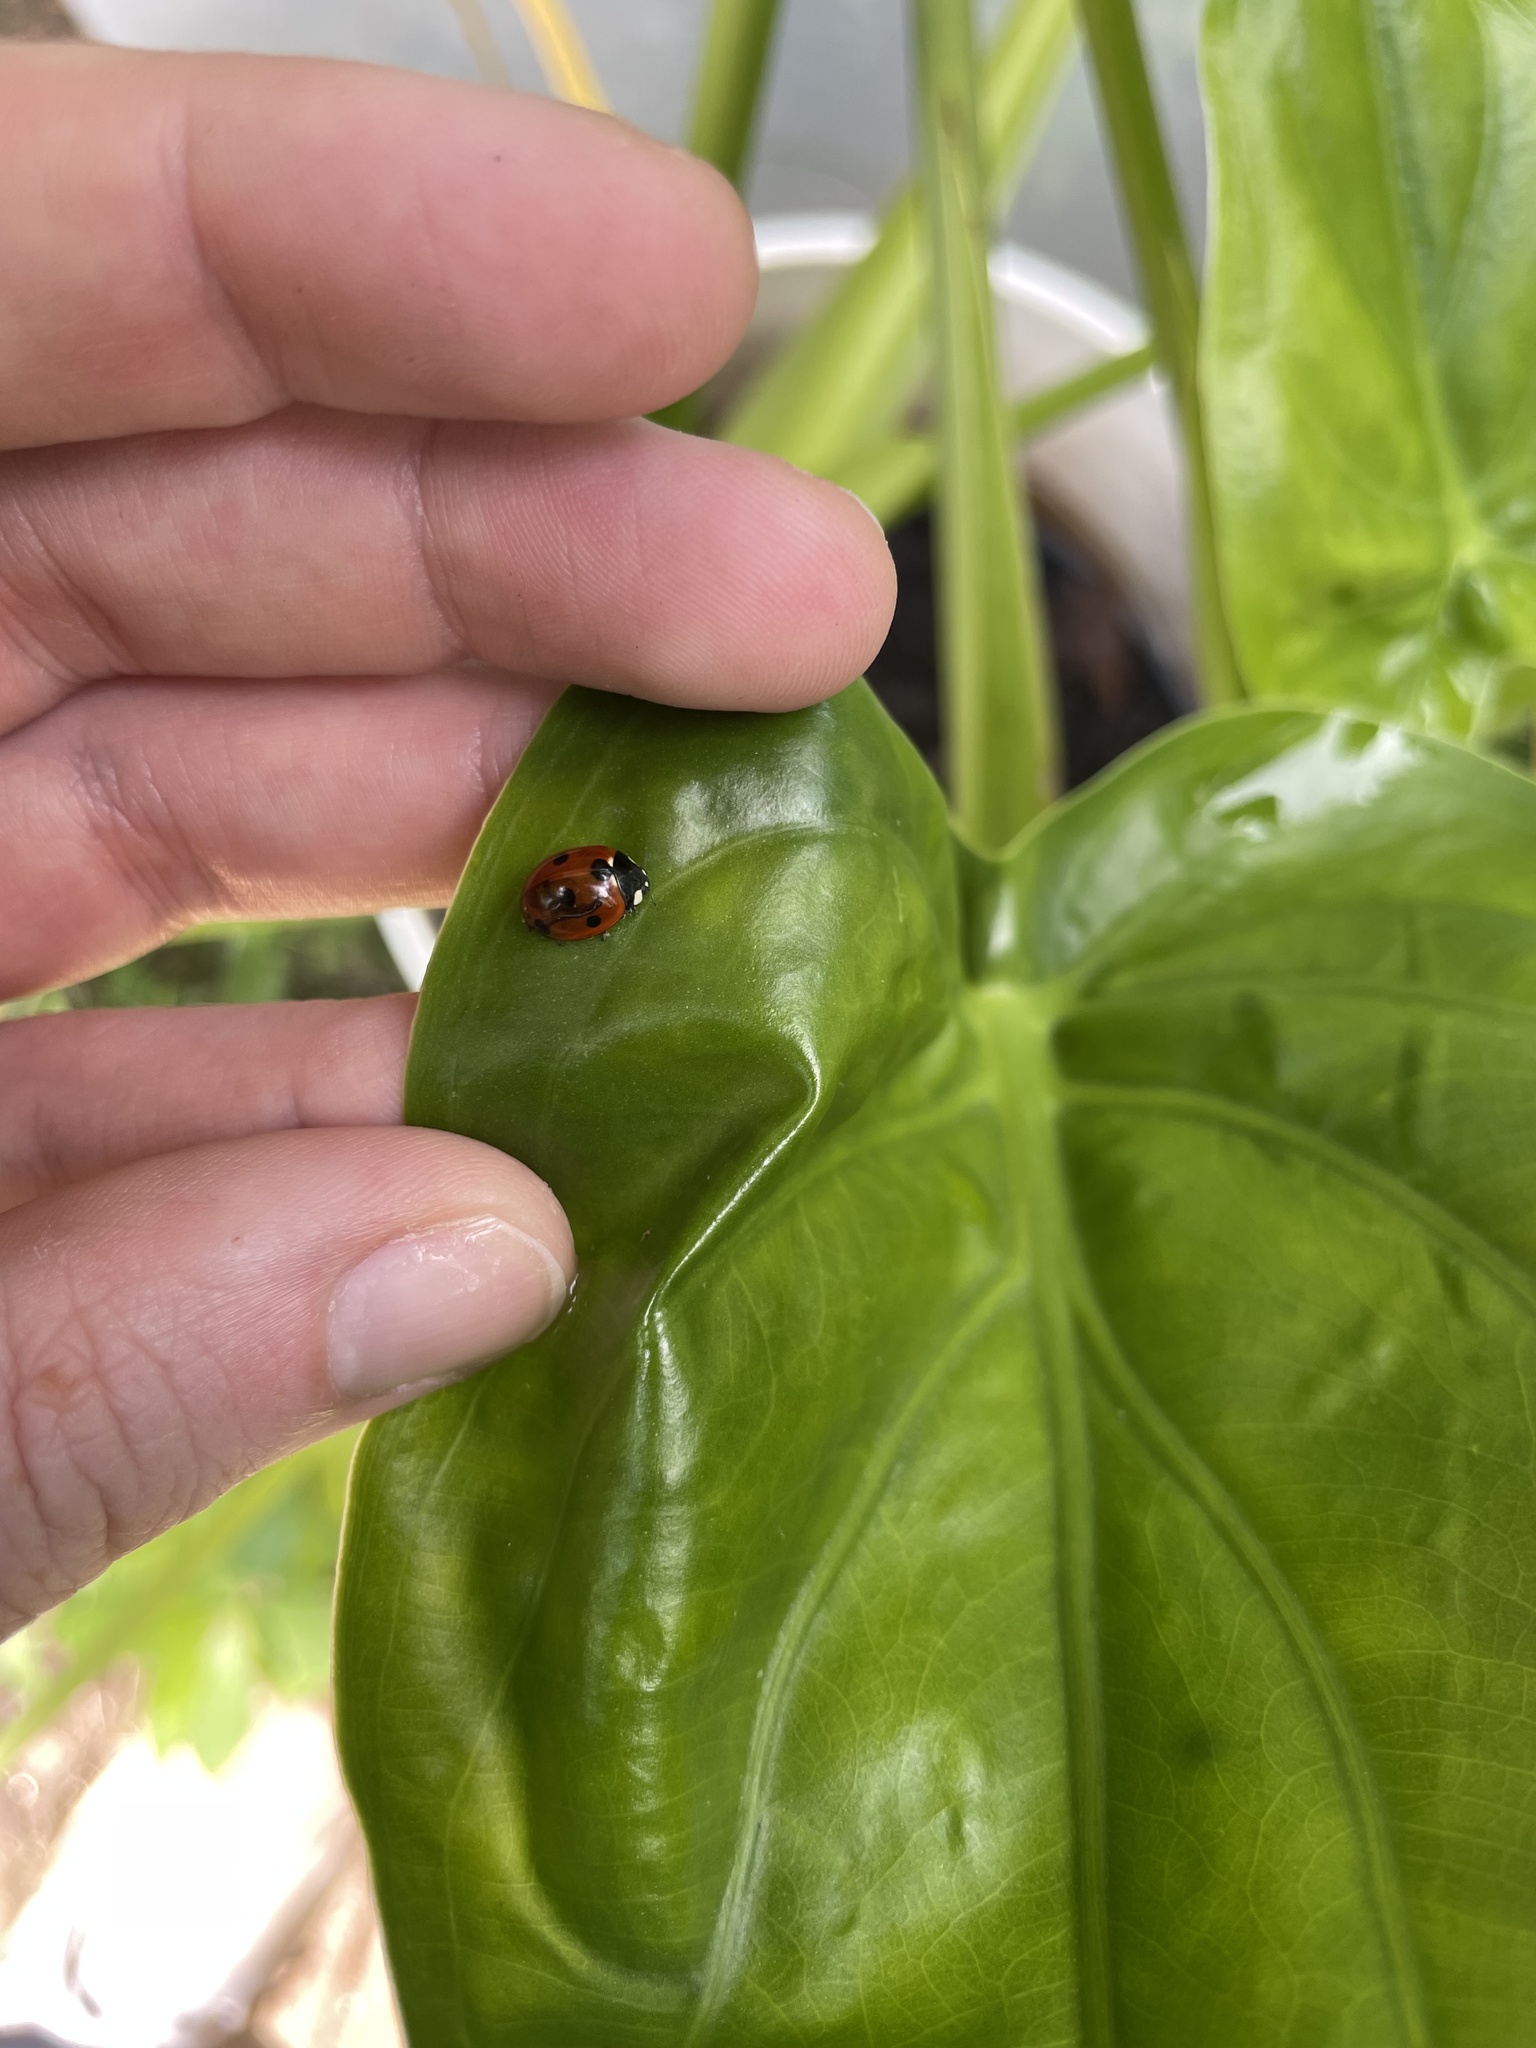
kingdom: Animalia
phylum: Arthropoda
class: Insecta
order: Coleoptera
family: Coccinellidae
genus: Coccinella
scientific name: Coccinella septempunctata
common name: Sevenspotted lady beetle
